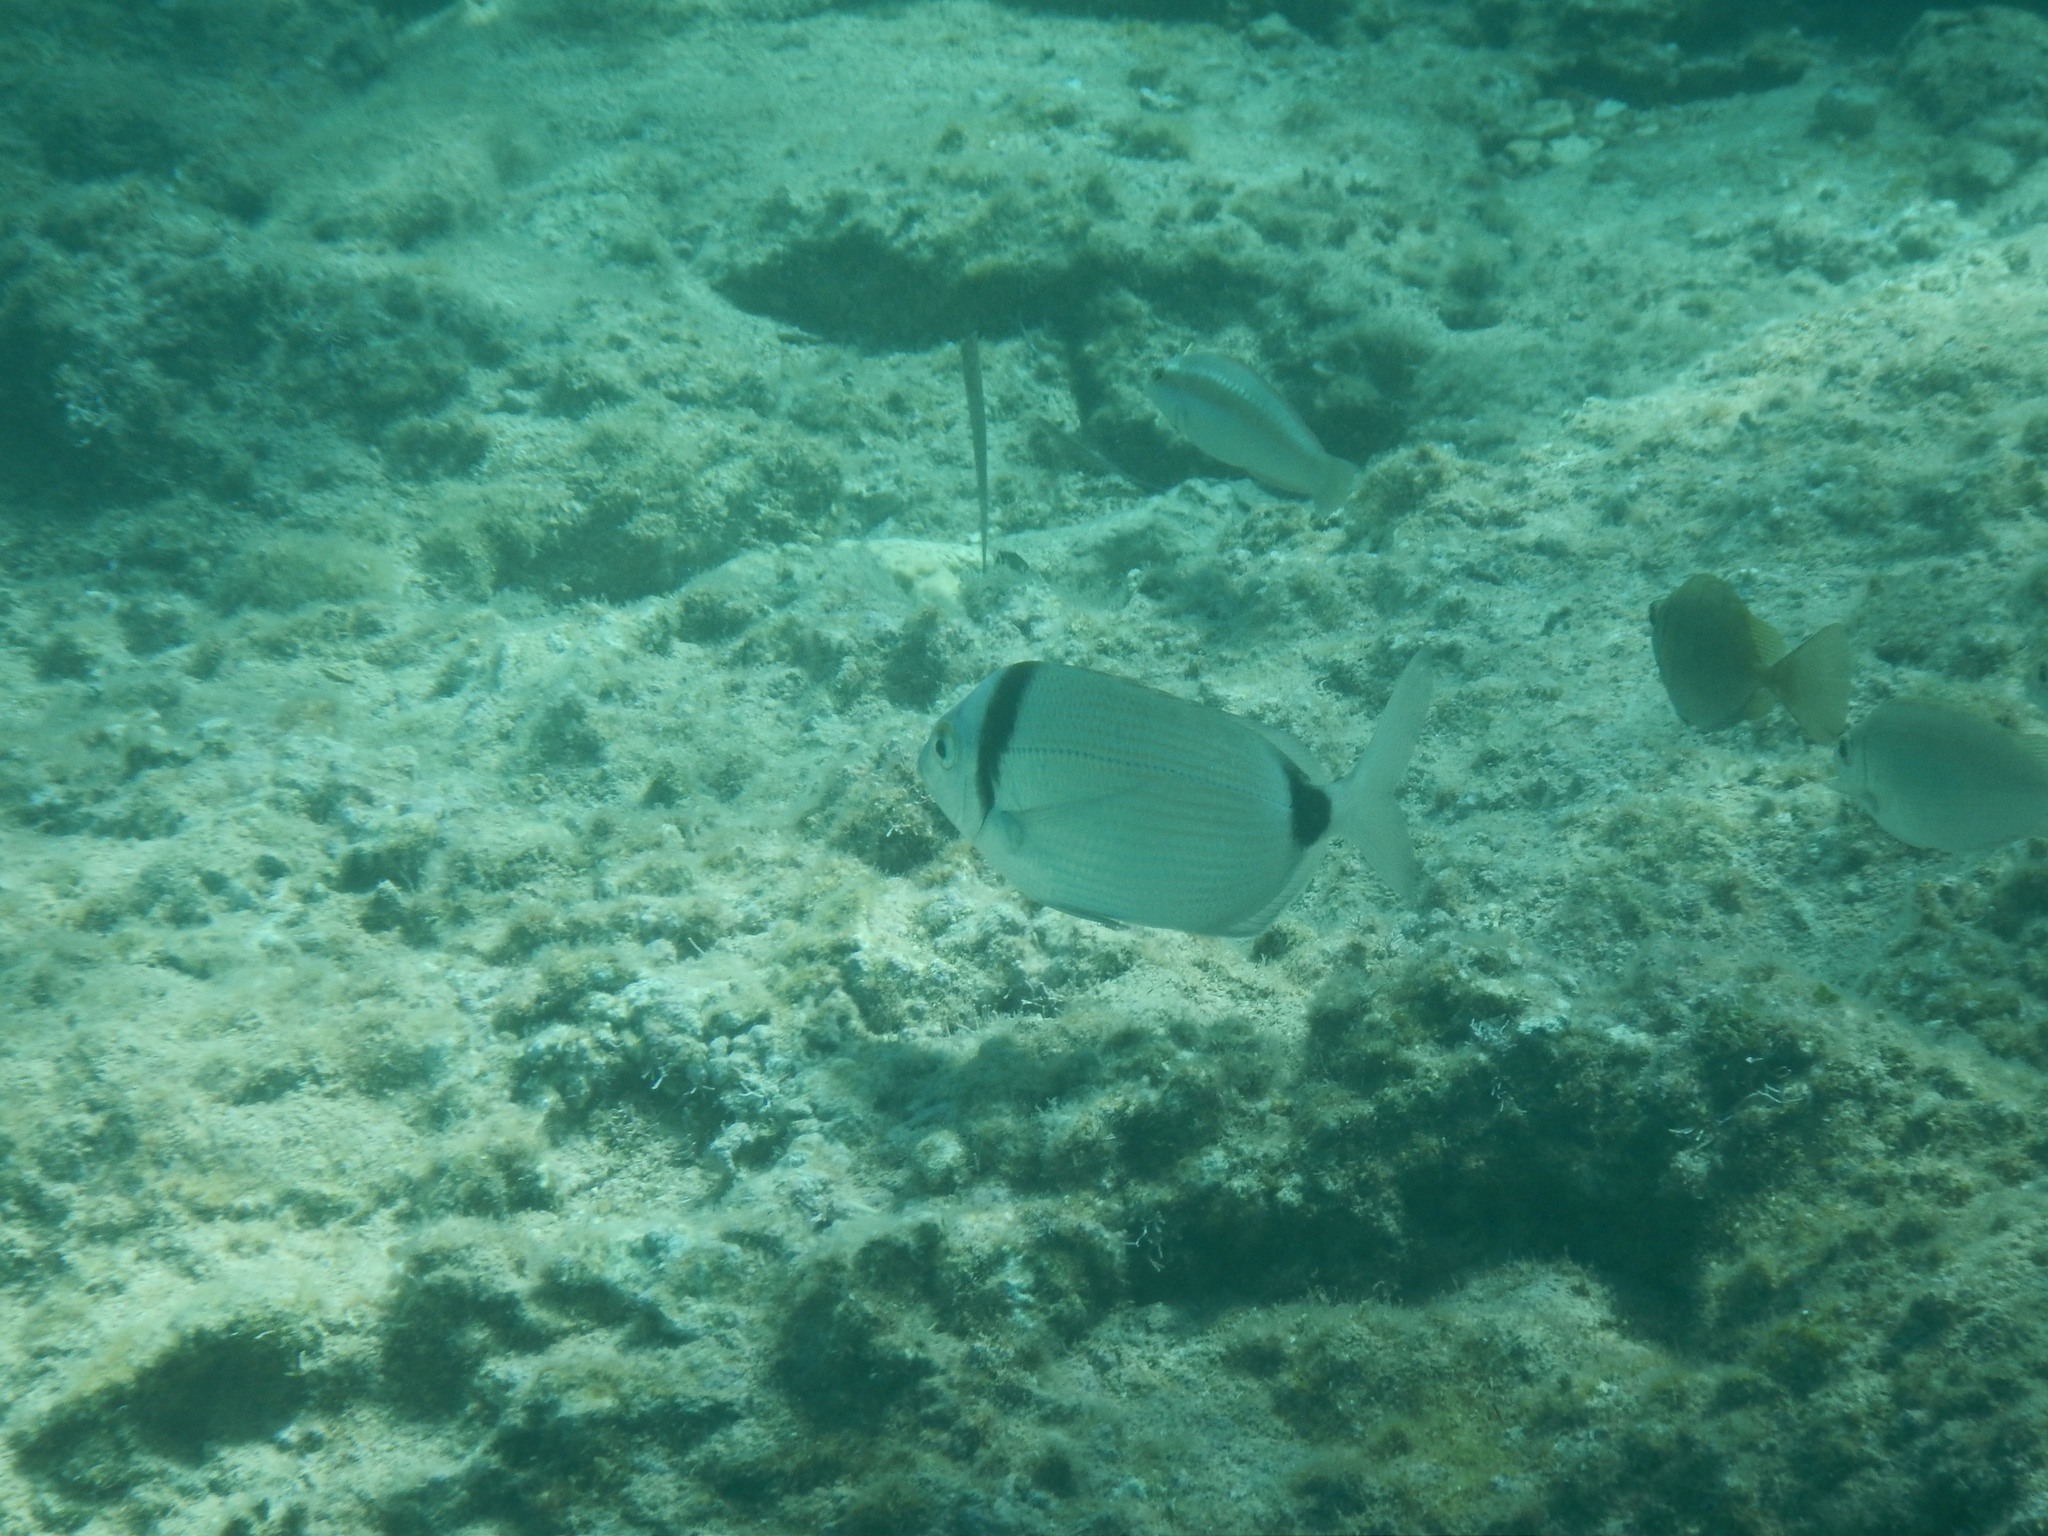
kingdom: Animalia
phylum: Chordata
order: Perciformes
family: Sparidae
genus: Diplodus
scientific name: Diplodus vulgaris
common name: Common two-banded seabream
